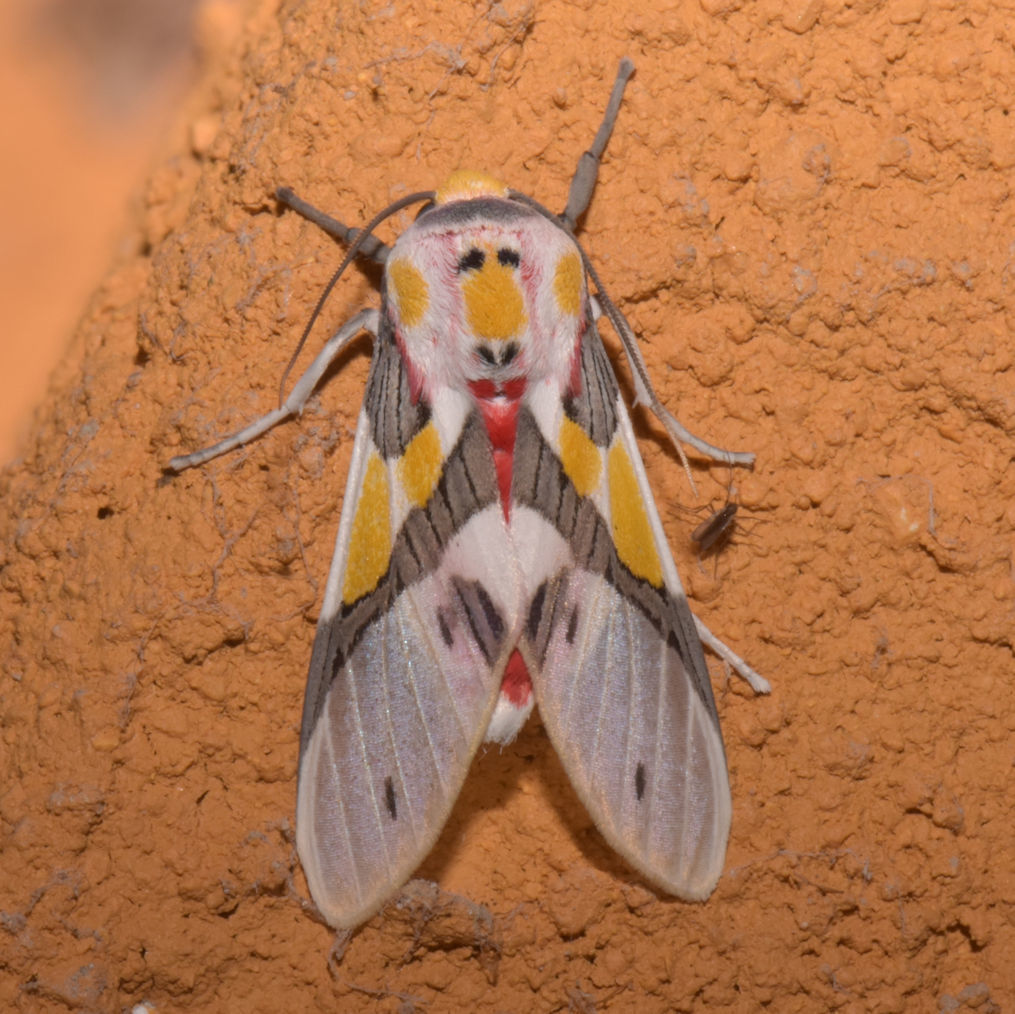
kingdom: Animalia
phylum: Arthropoda
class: Insecta
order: Lepidoptera
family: Erebidae
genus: Idalus
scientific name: Idalus delicata
